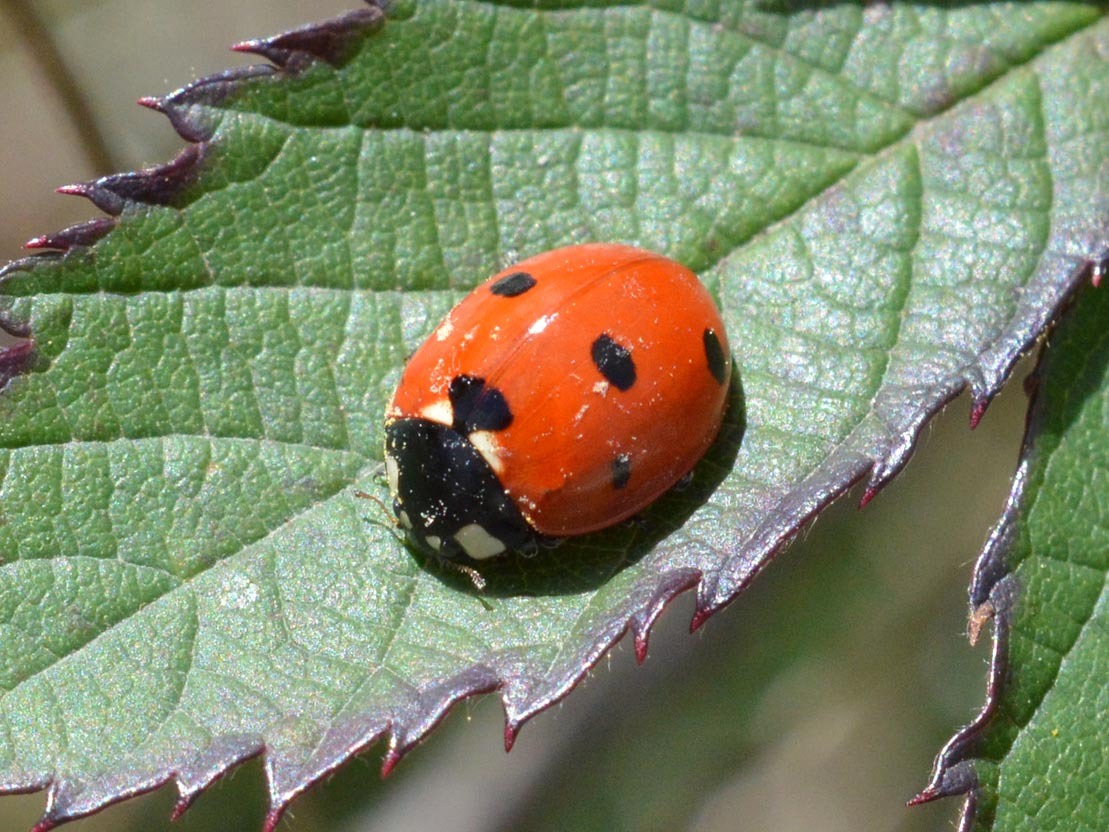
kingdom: Animalia
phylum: Arthropoda
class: Insecta
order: Coleoptera
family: Coccinellidae
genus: Coccinella
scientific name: Coccinella septempunctata
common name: Sevenspotted lady beetle
